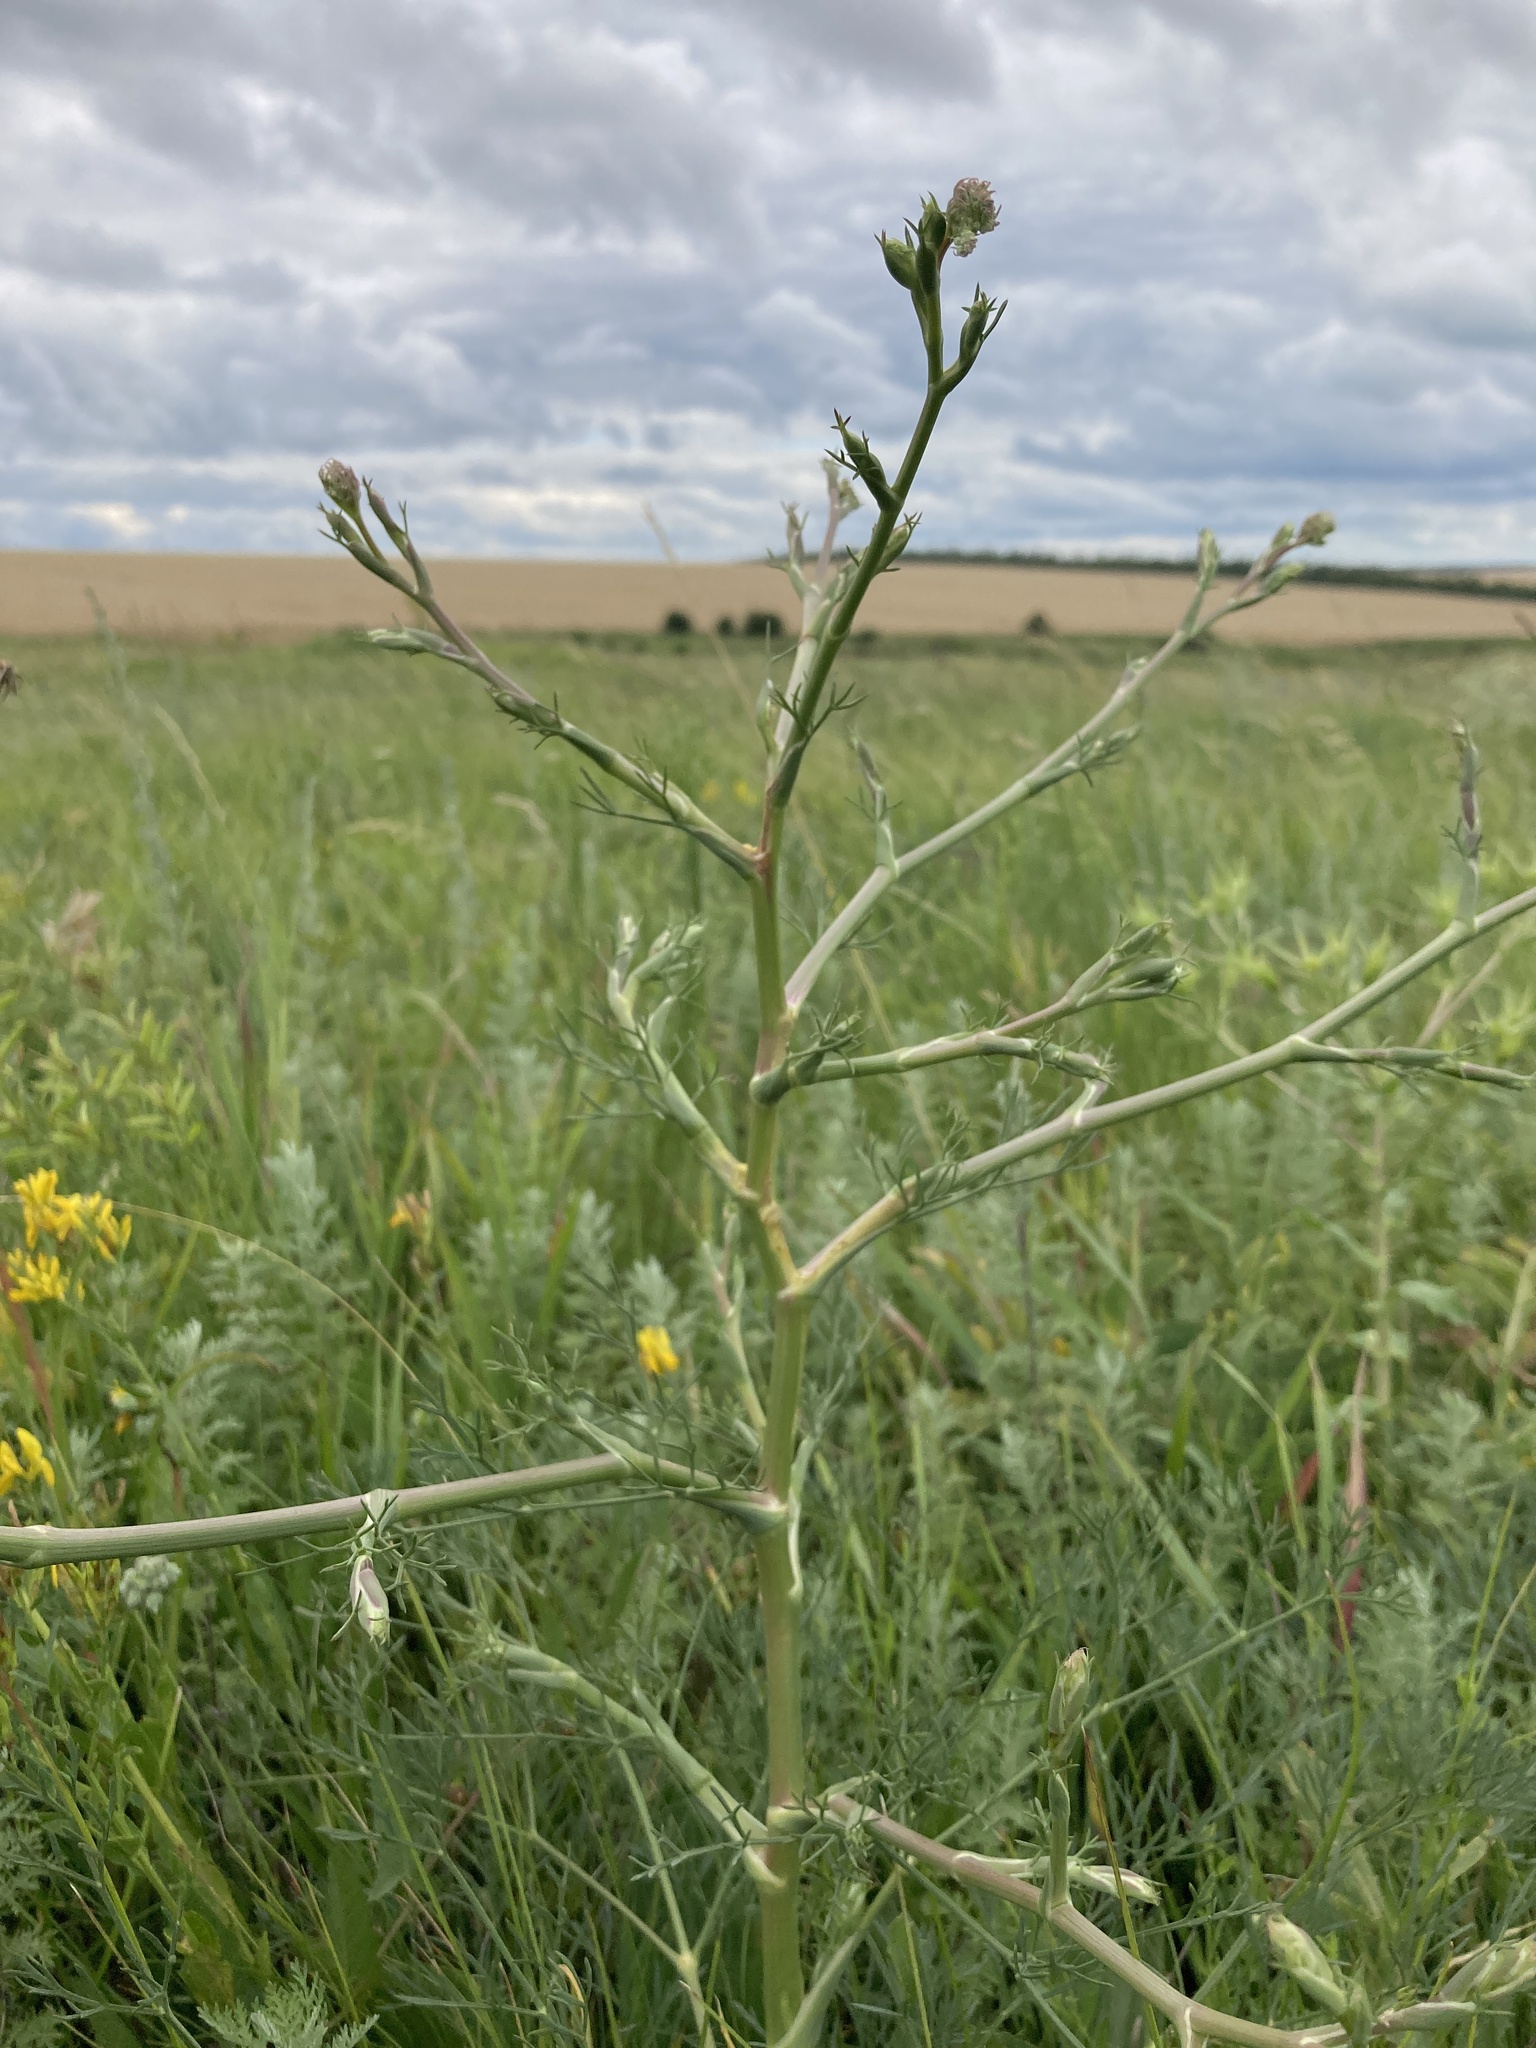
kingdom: Plantae
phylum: Tracheophyta
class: Magnoliopsida
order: Apiales
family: Apiaceae
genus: Seseli
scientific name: Seseli arenarium
